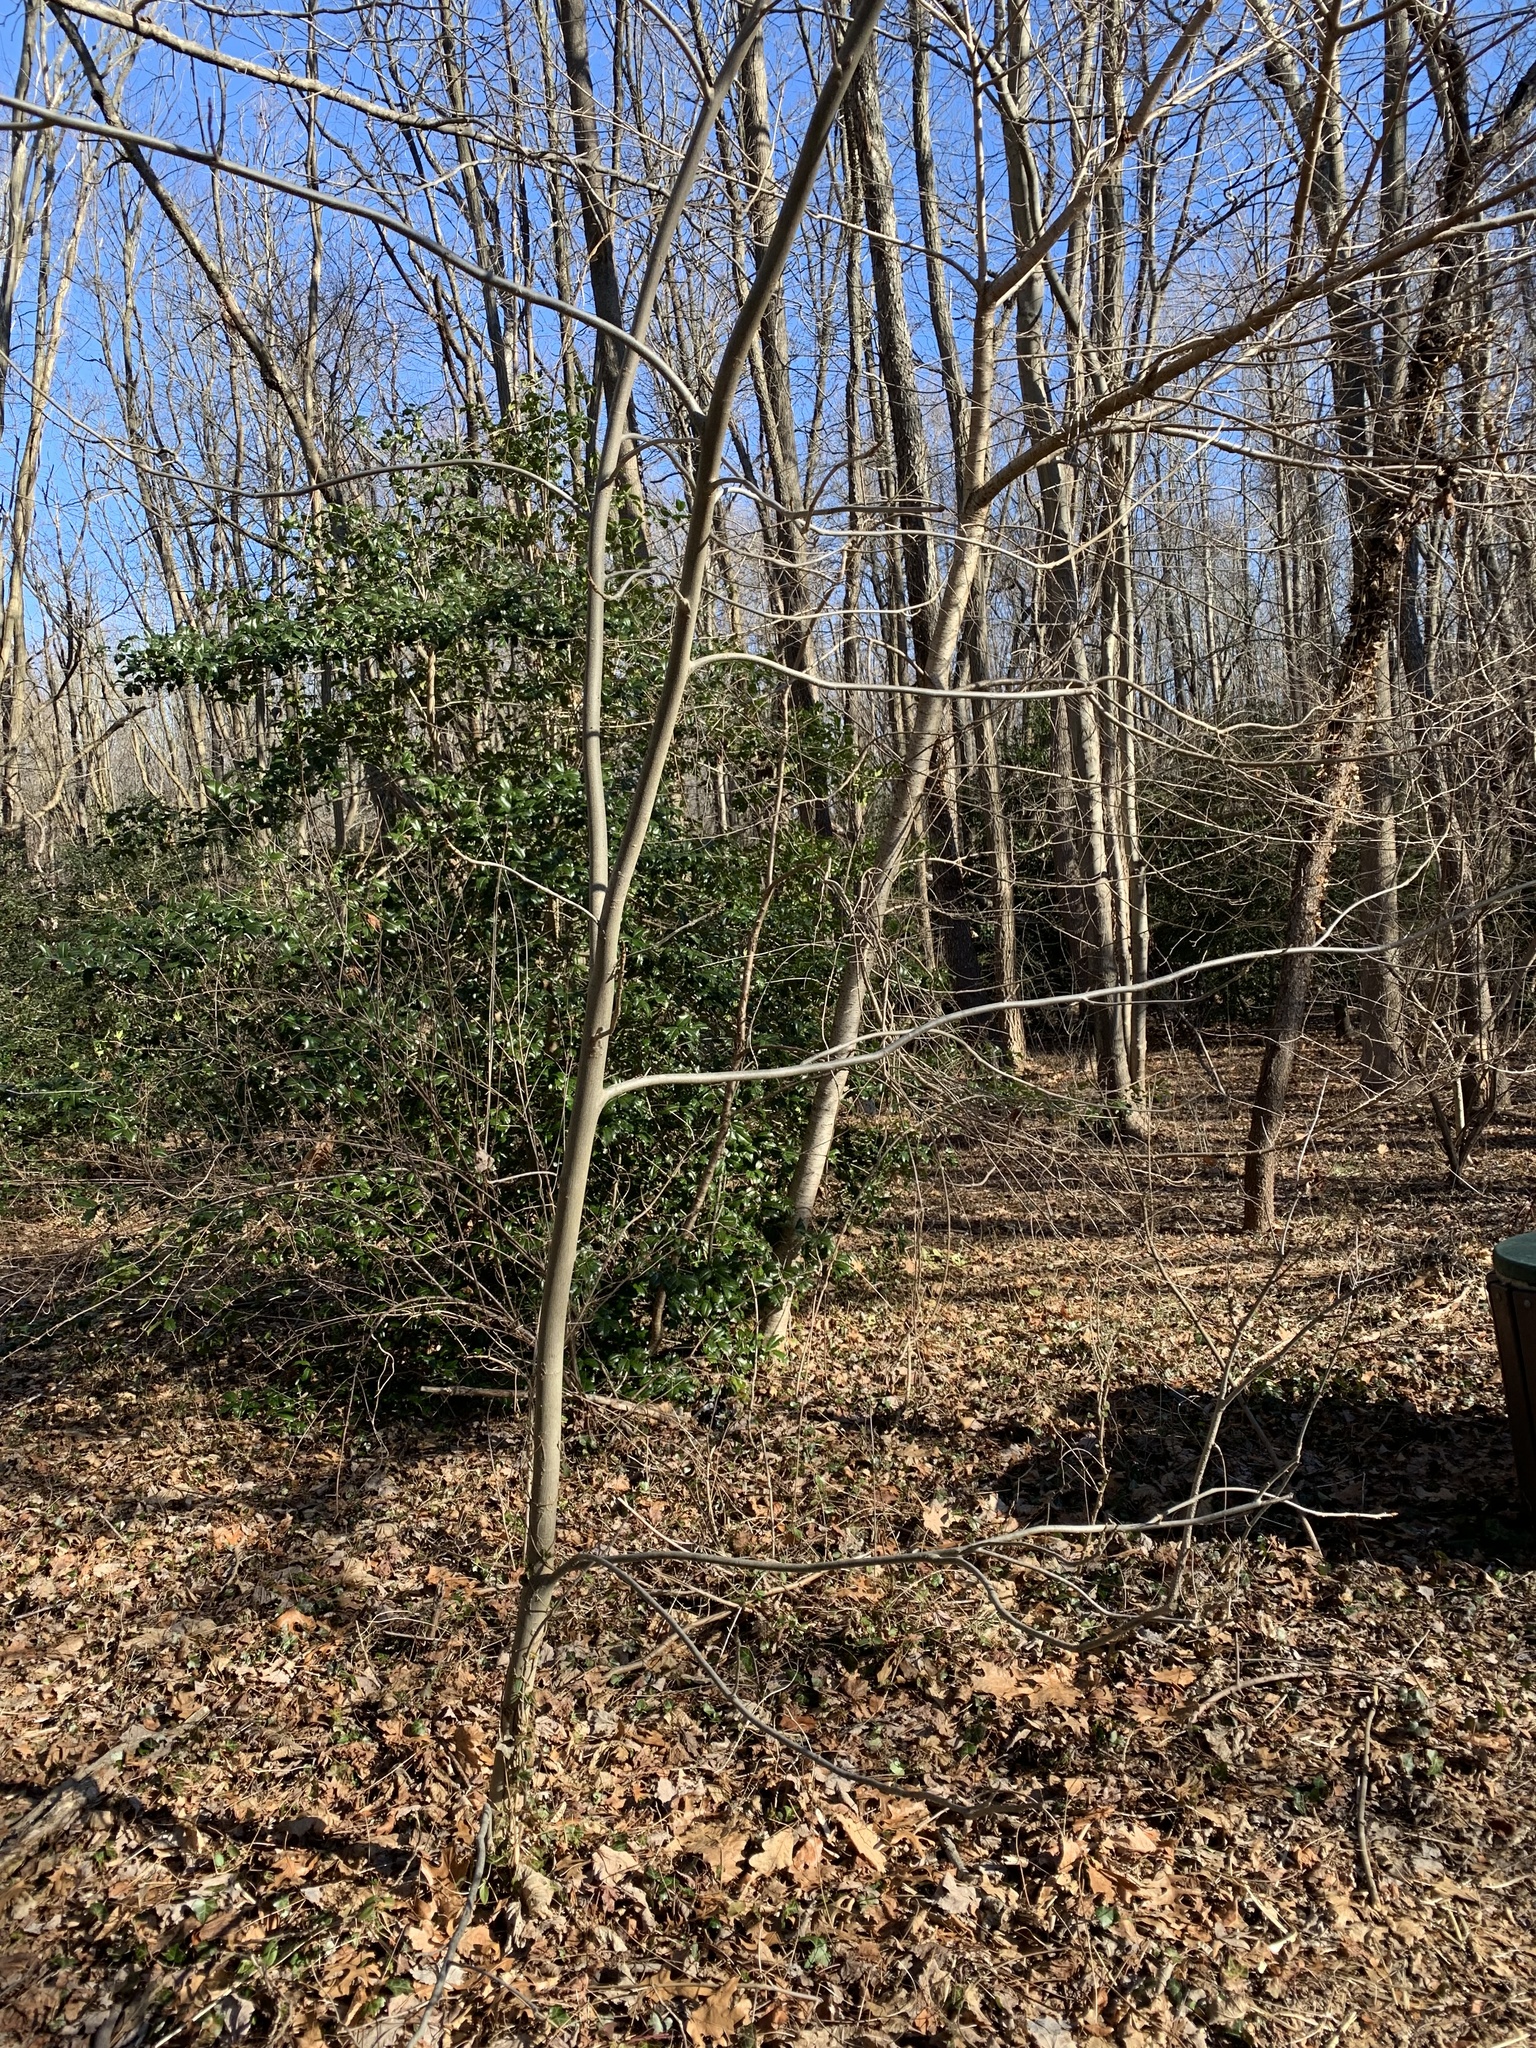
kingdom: Plantae
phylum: Tracheophyta
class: Magnoliopsida
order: Fagales
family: Juglandaceae
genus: Carya
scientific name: Carya cordiformis
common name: Bitternut hickory
